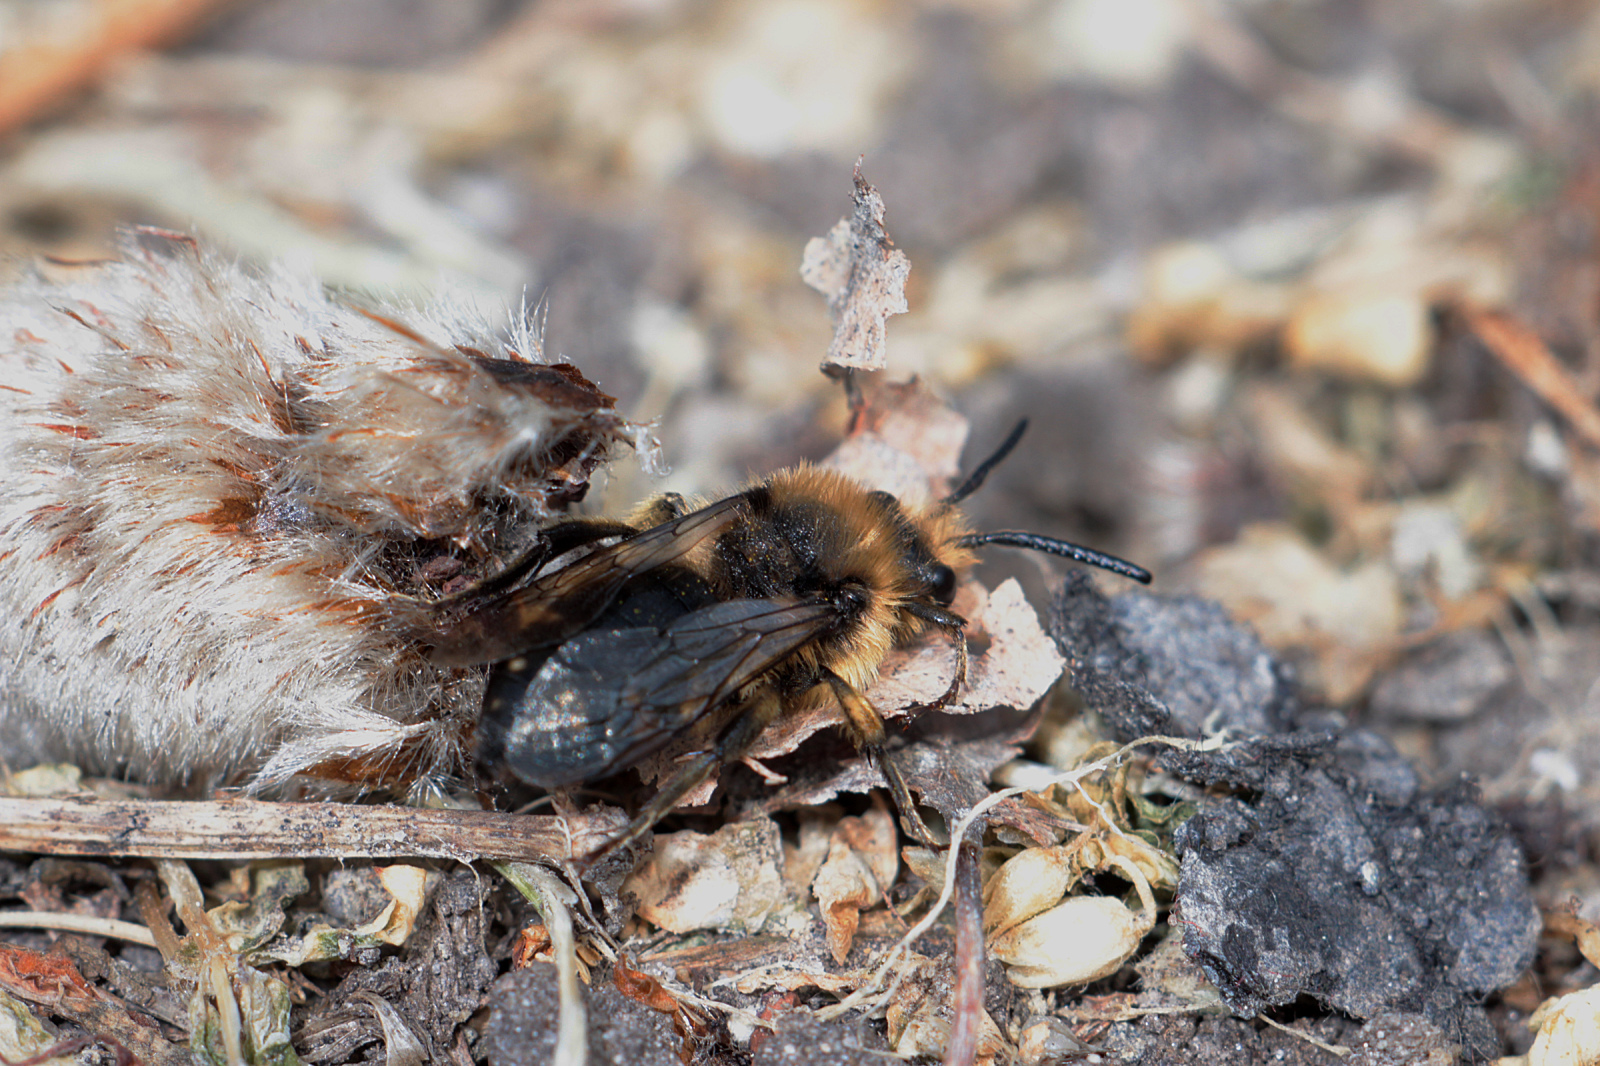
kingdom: Animalia
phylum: Arthropoda
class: Insecta
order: Hymenoptera
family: Apidae
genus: Melecta
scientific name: Melecta albifrons
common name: Common mourning bee
